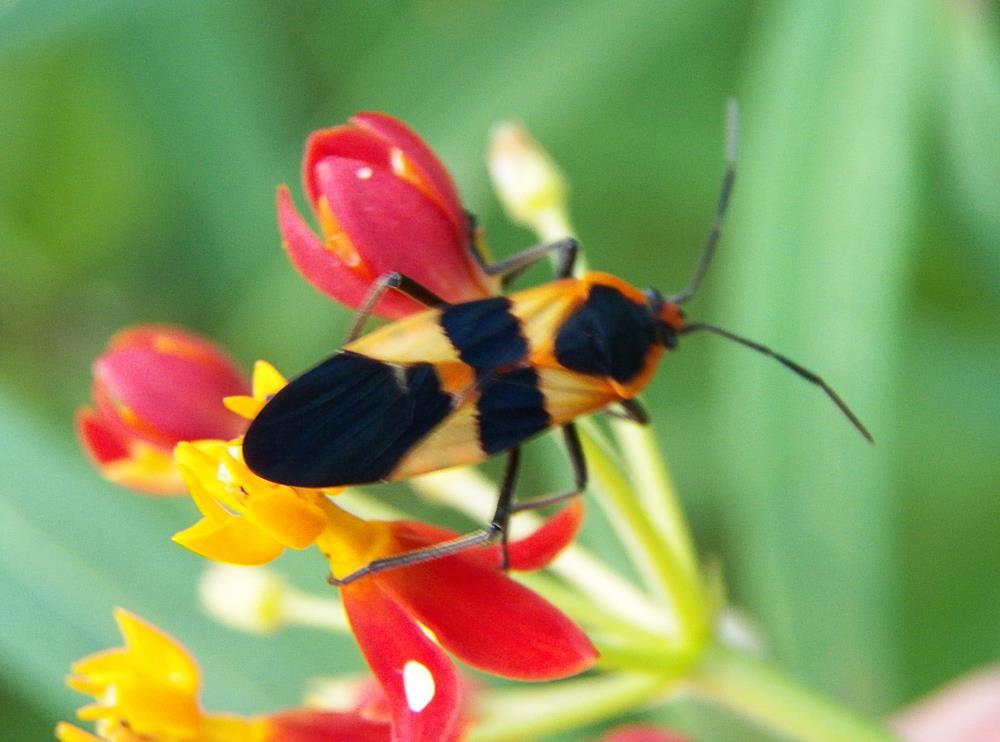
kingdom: Animalia
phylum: Arthropoda
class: Insecta
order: Hemiptera
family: Lygaeidae
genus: Oncopeltus
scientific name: Oncopeltus fasciatus
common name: Large milkweed bug
